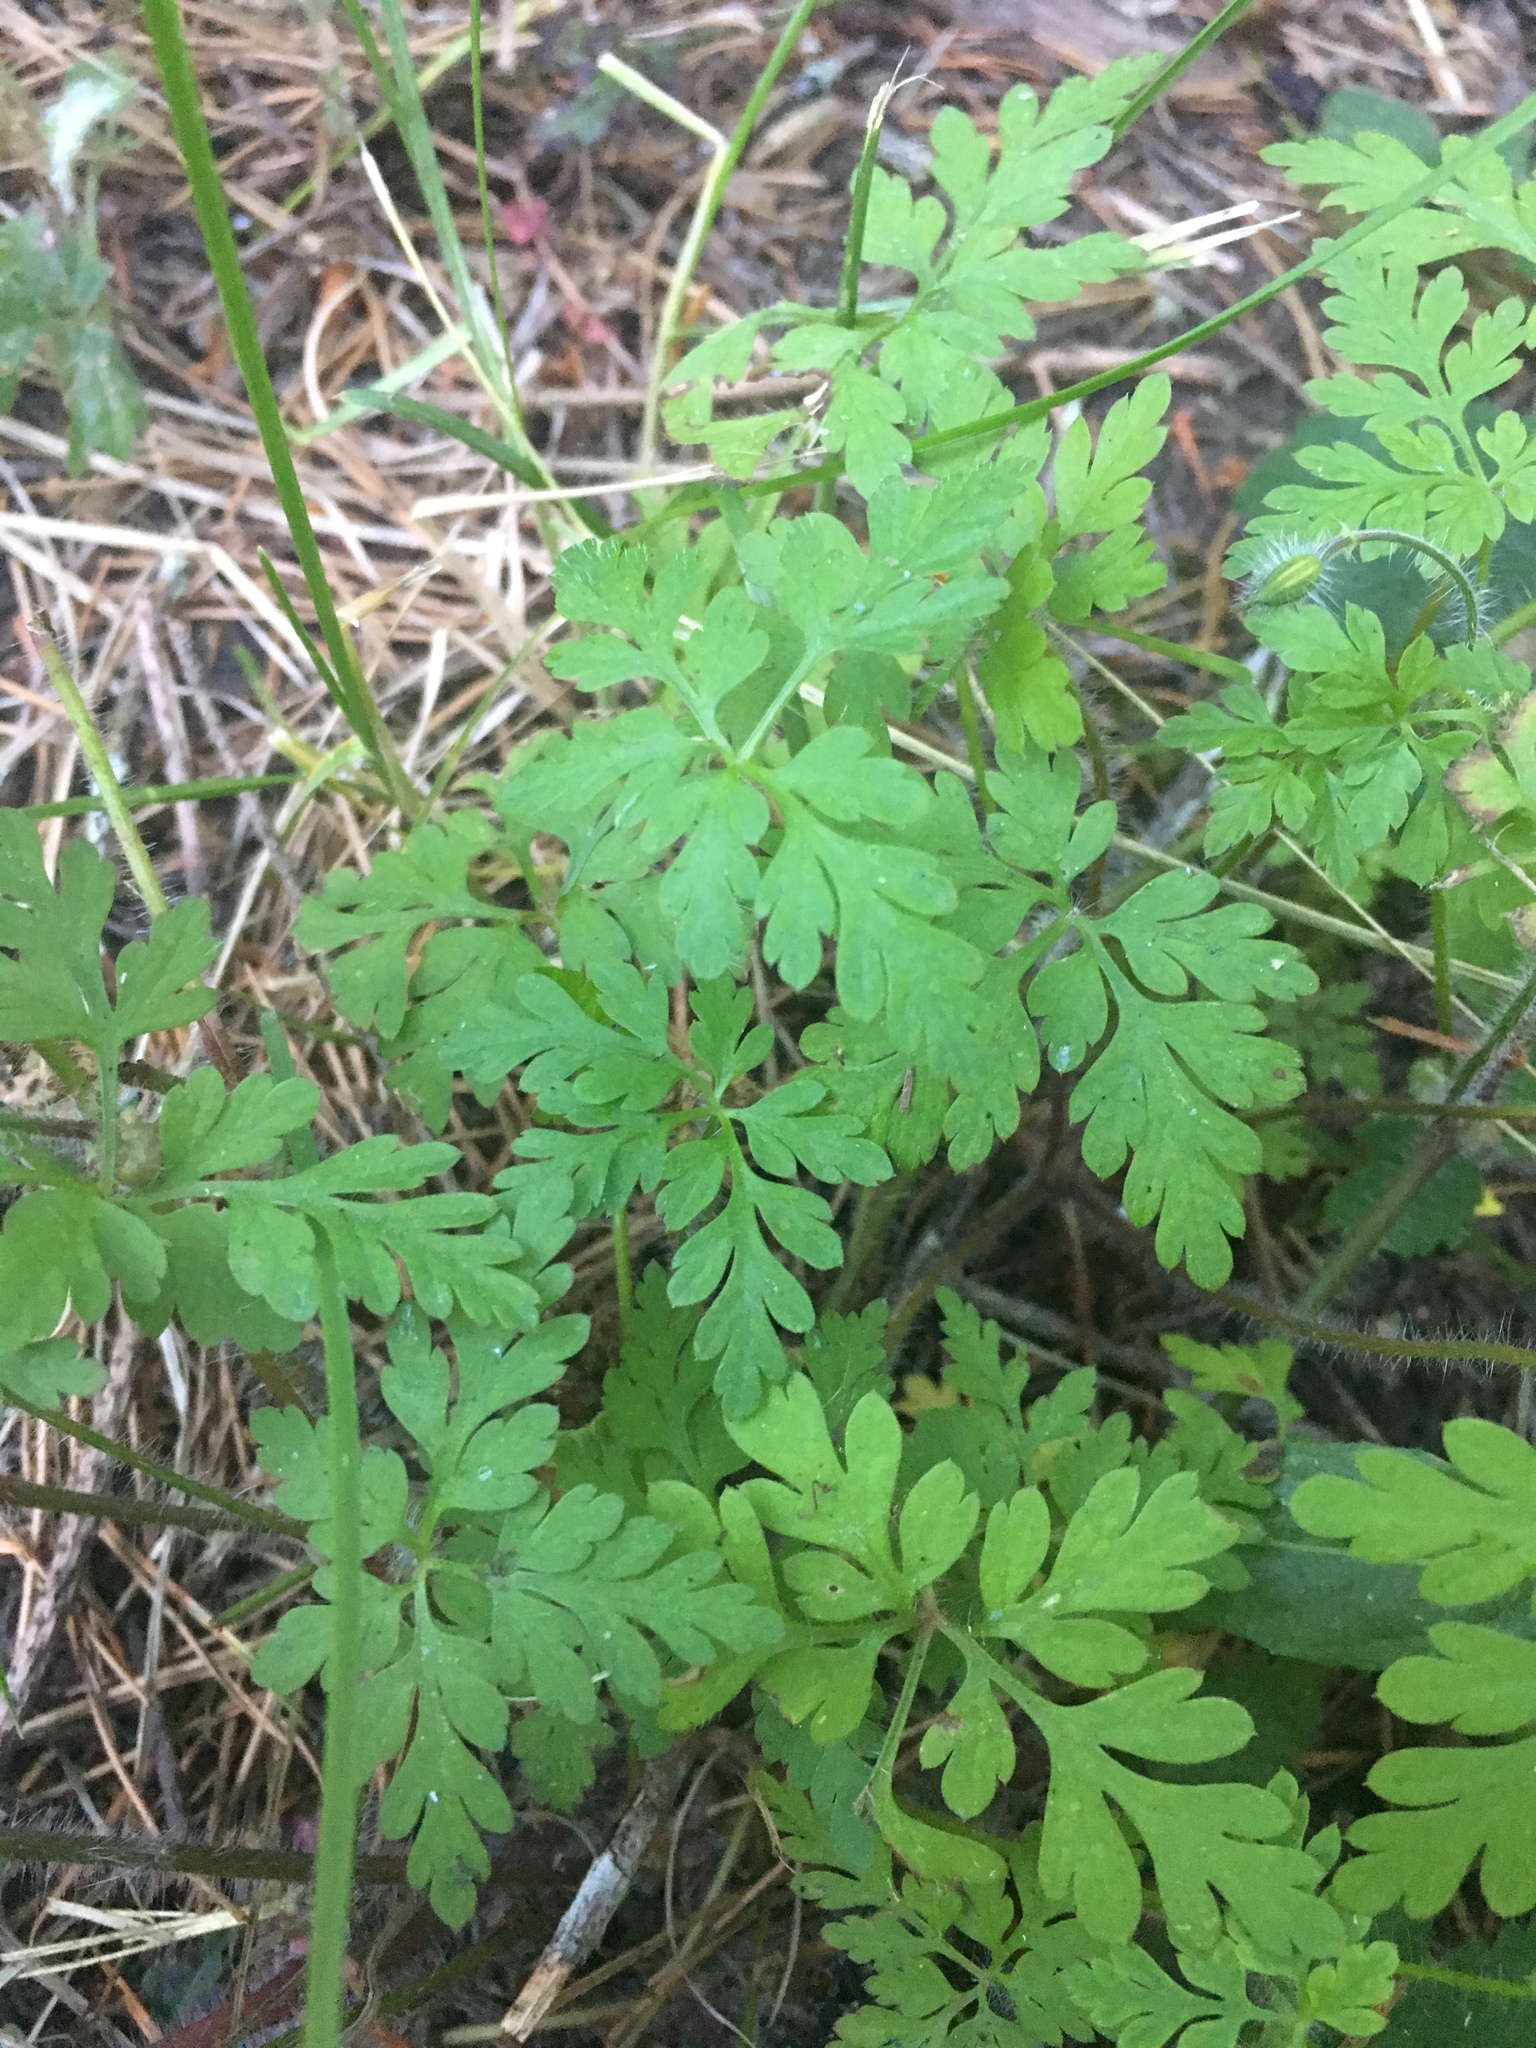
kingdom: Plantae
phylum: Tracheophyta
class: Magnoliopsida
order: Geraniales
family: Geraniaceae
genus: Geranium
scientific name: Geranium robertianum
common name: Herb-robert
